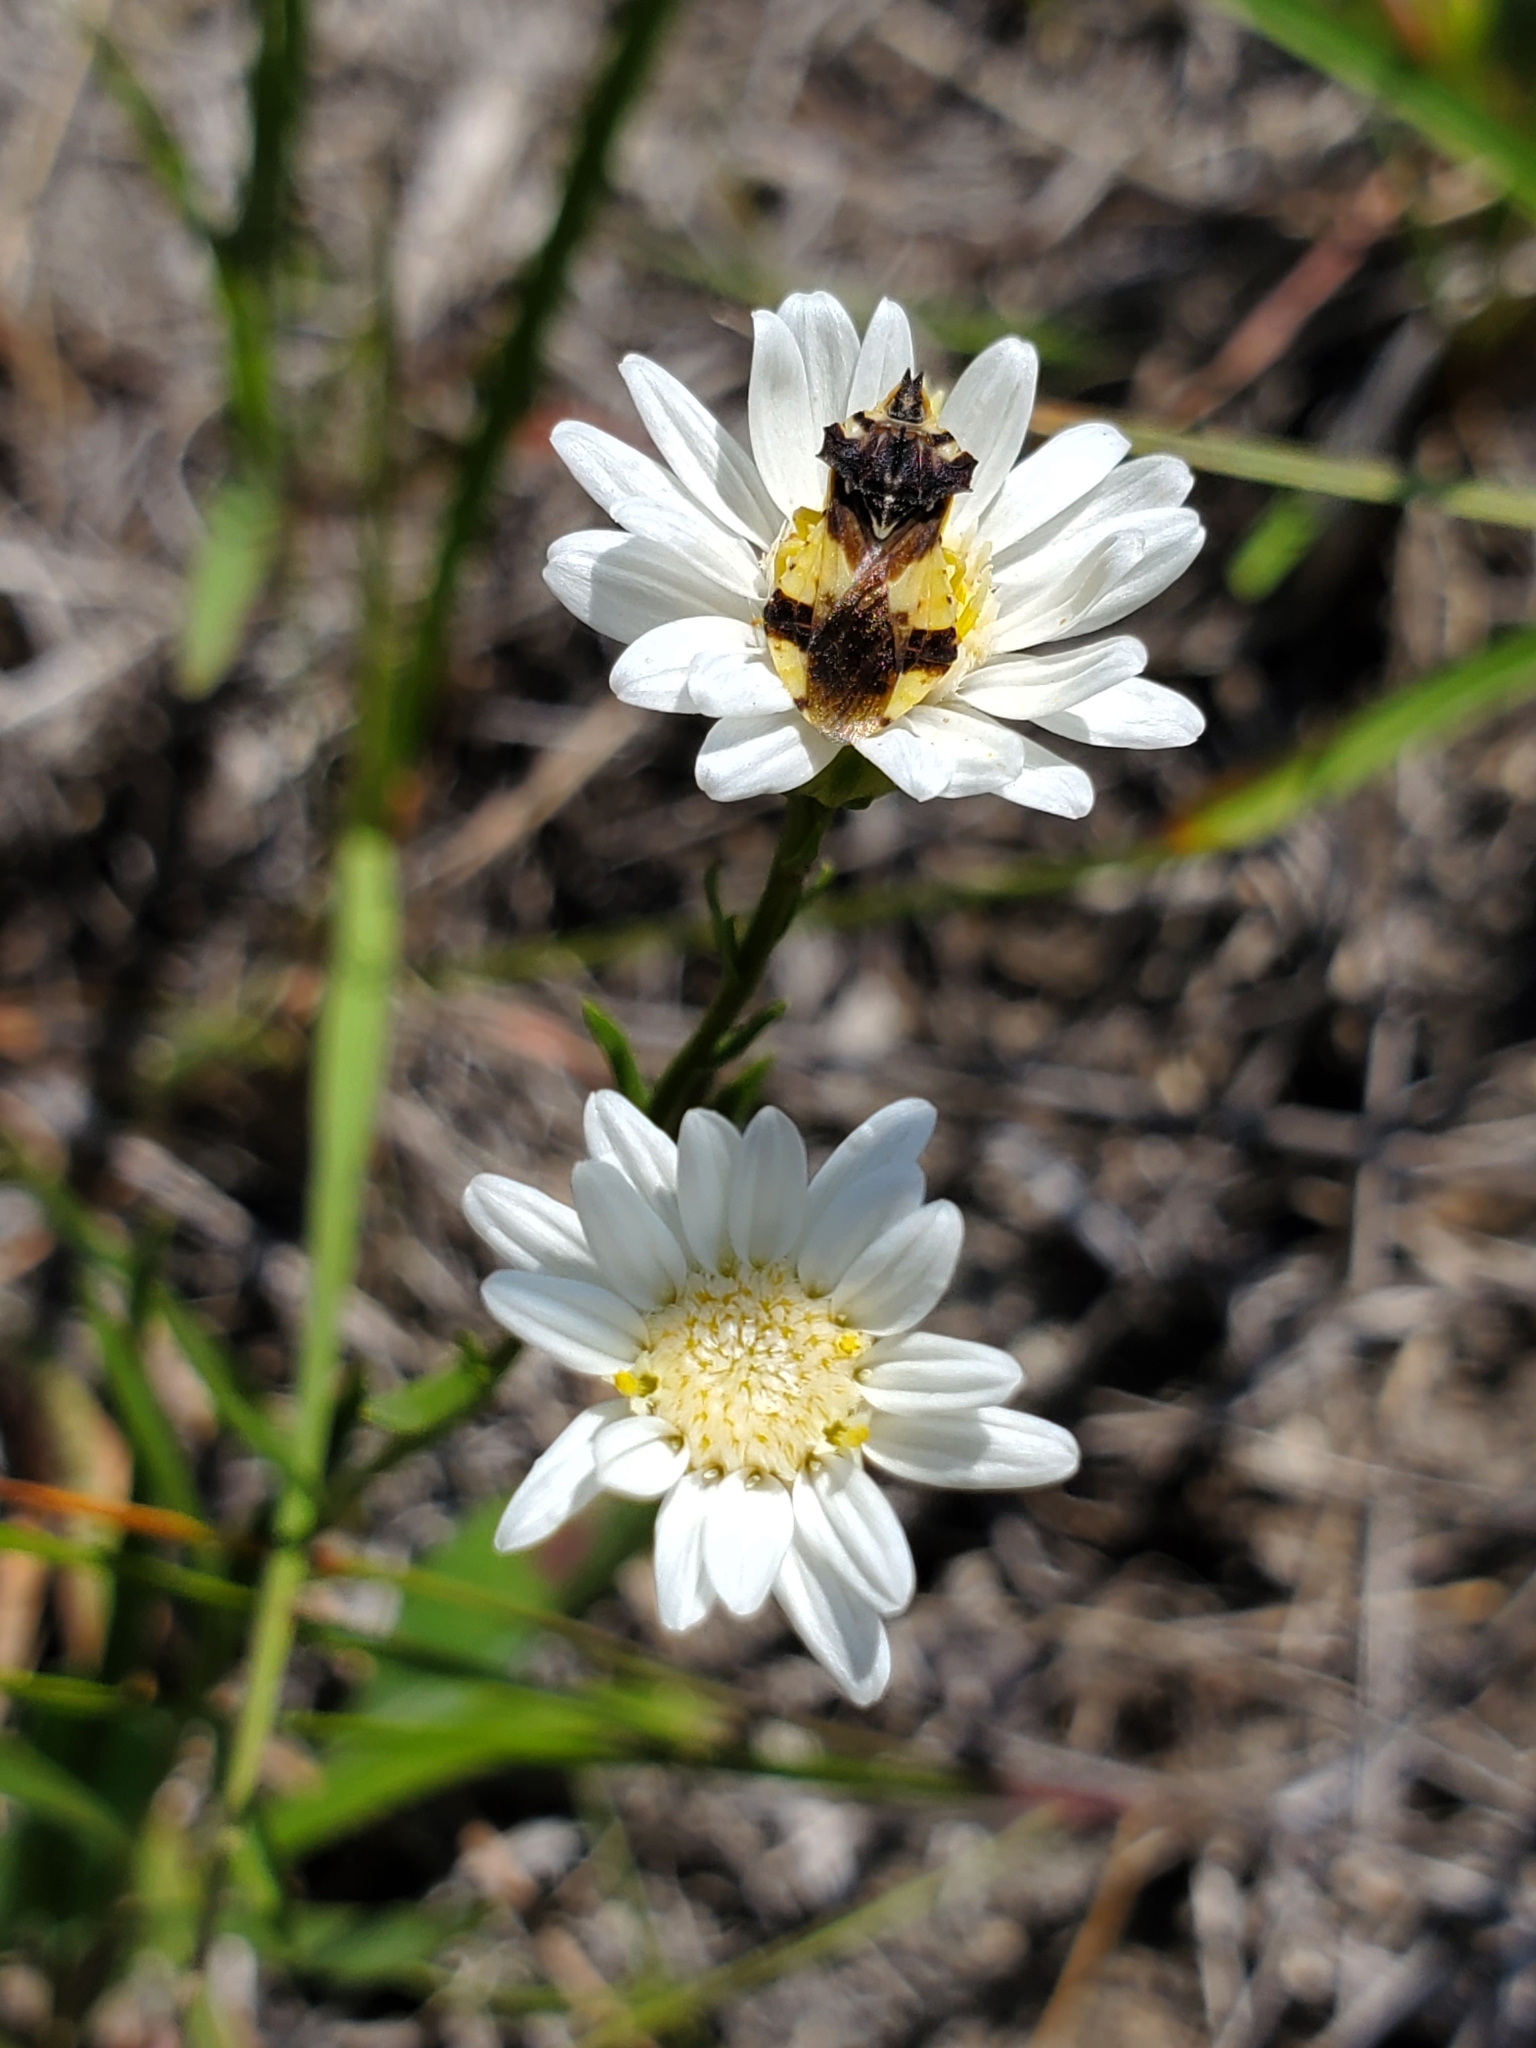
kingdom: Plantae
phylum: Tracheophyta
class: Magnoliopsida
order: Asterales
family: Asteraceae
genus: Solidago
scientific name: Solidago ptarmicoides
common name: White flat-top goldenrod
